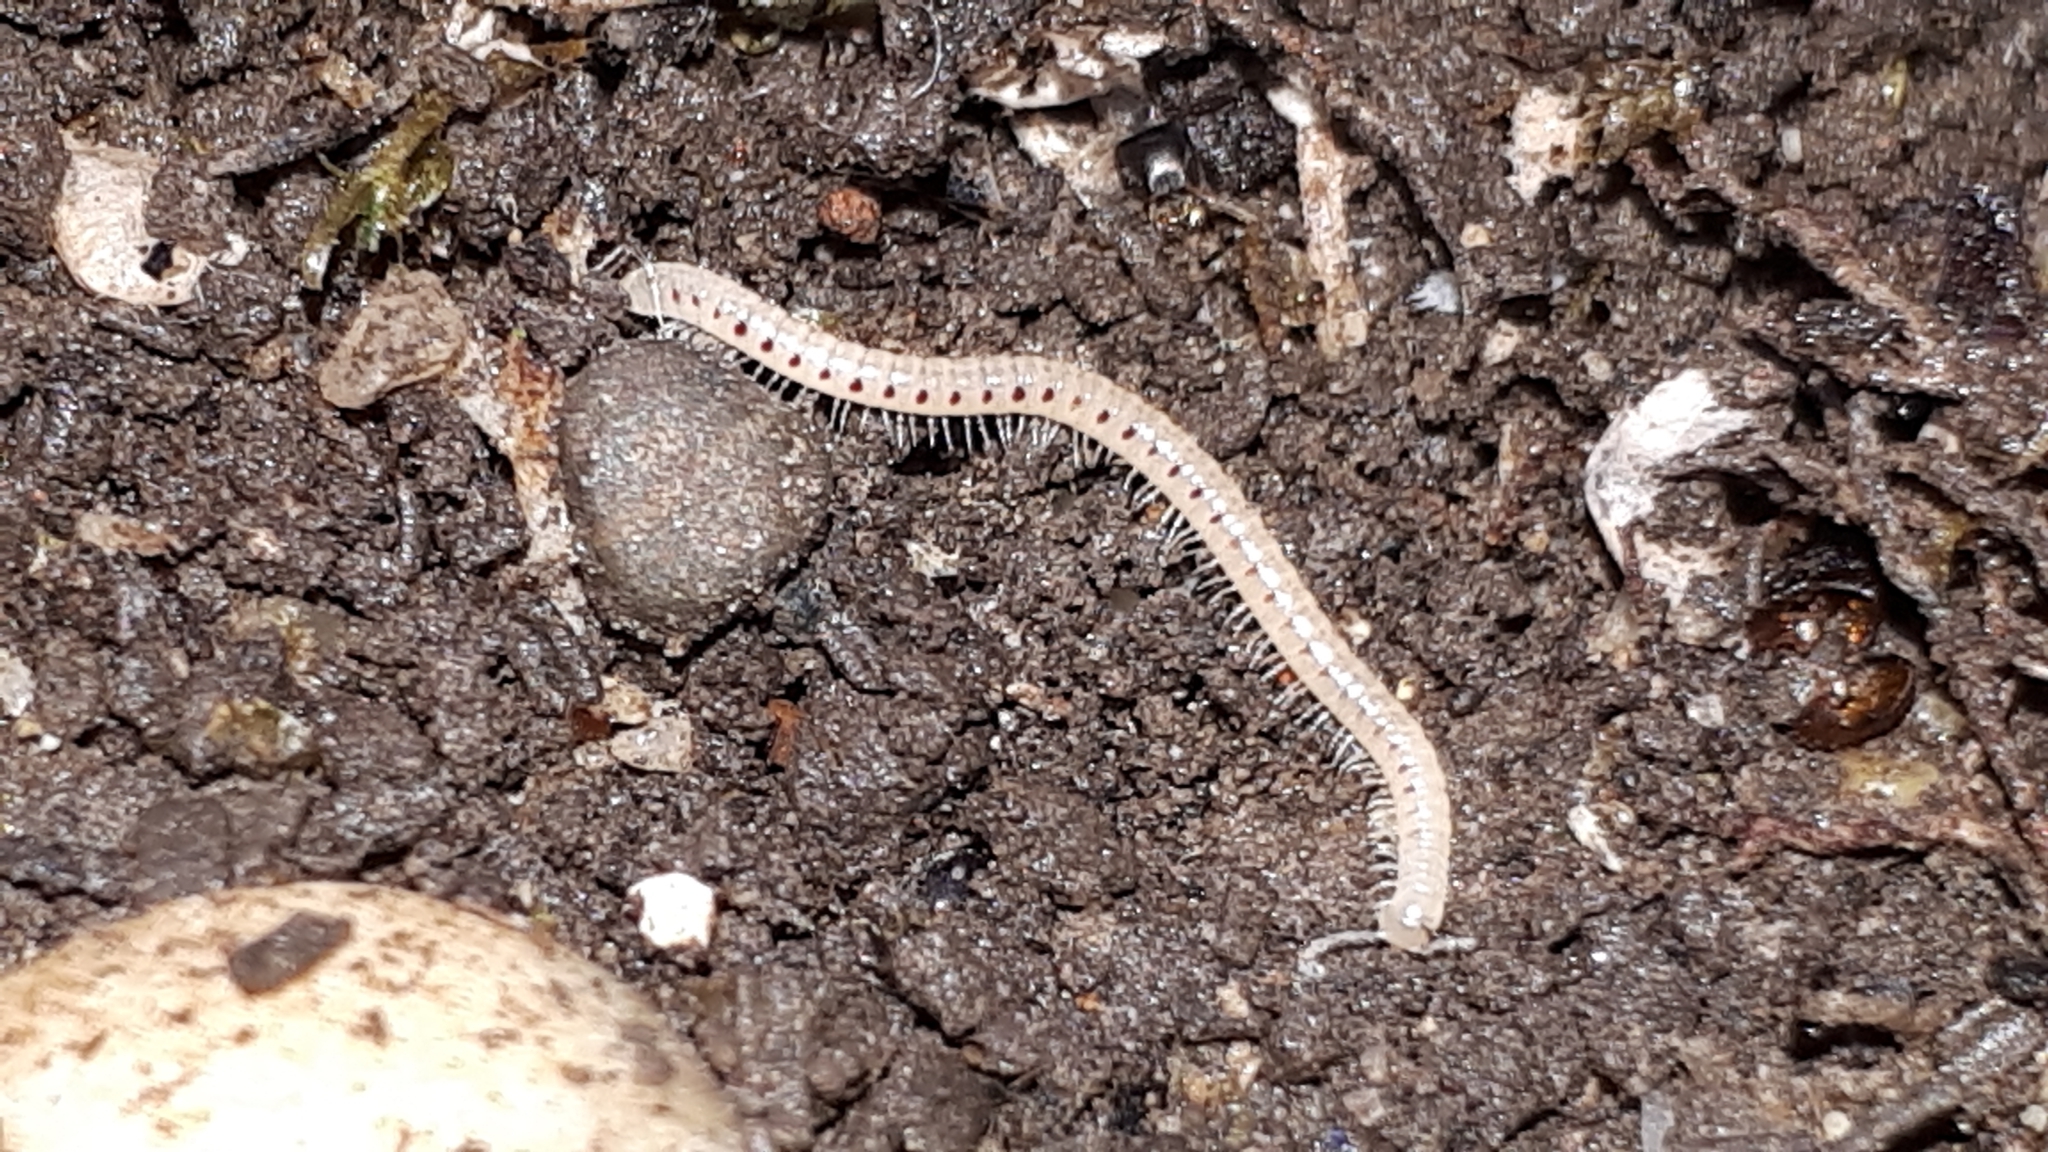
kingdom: Animalia
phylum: Arthropoda
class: Diplopoda
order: Julida
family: Blaniulidae
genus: Blaniulus
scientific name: Blaniulus guttulatus
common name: Spotted snake millipede
